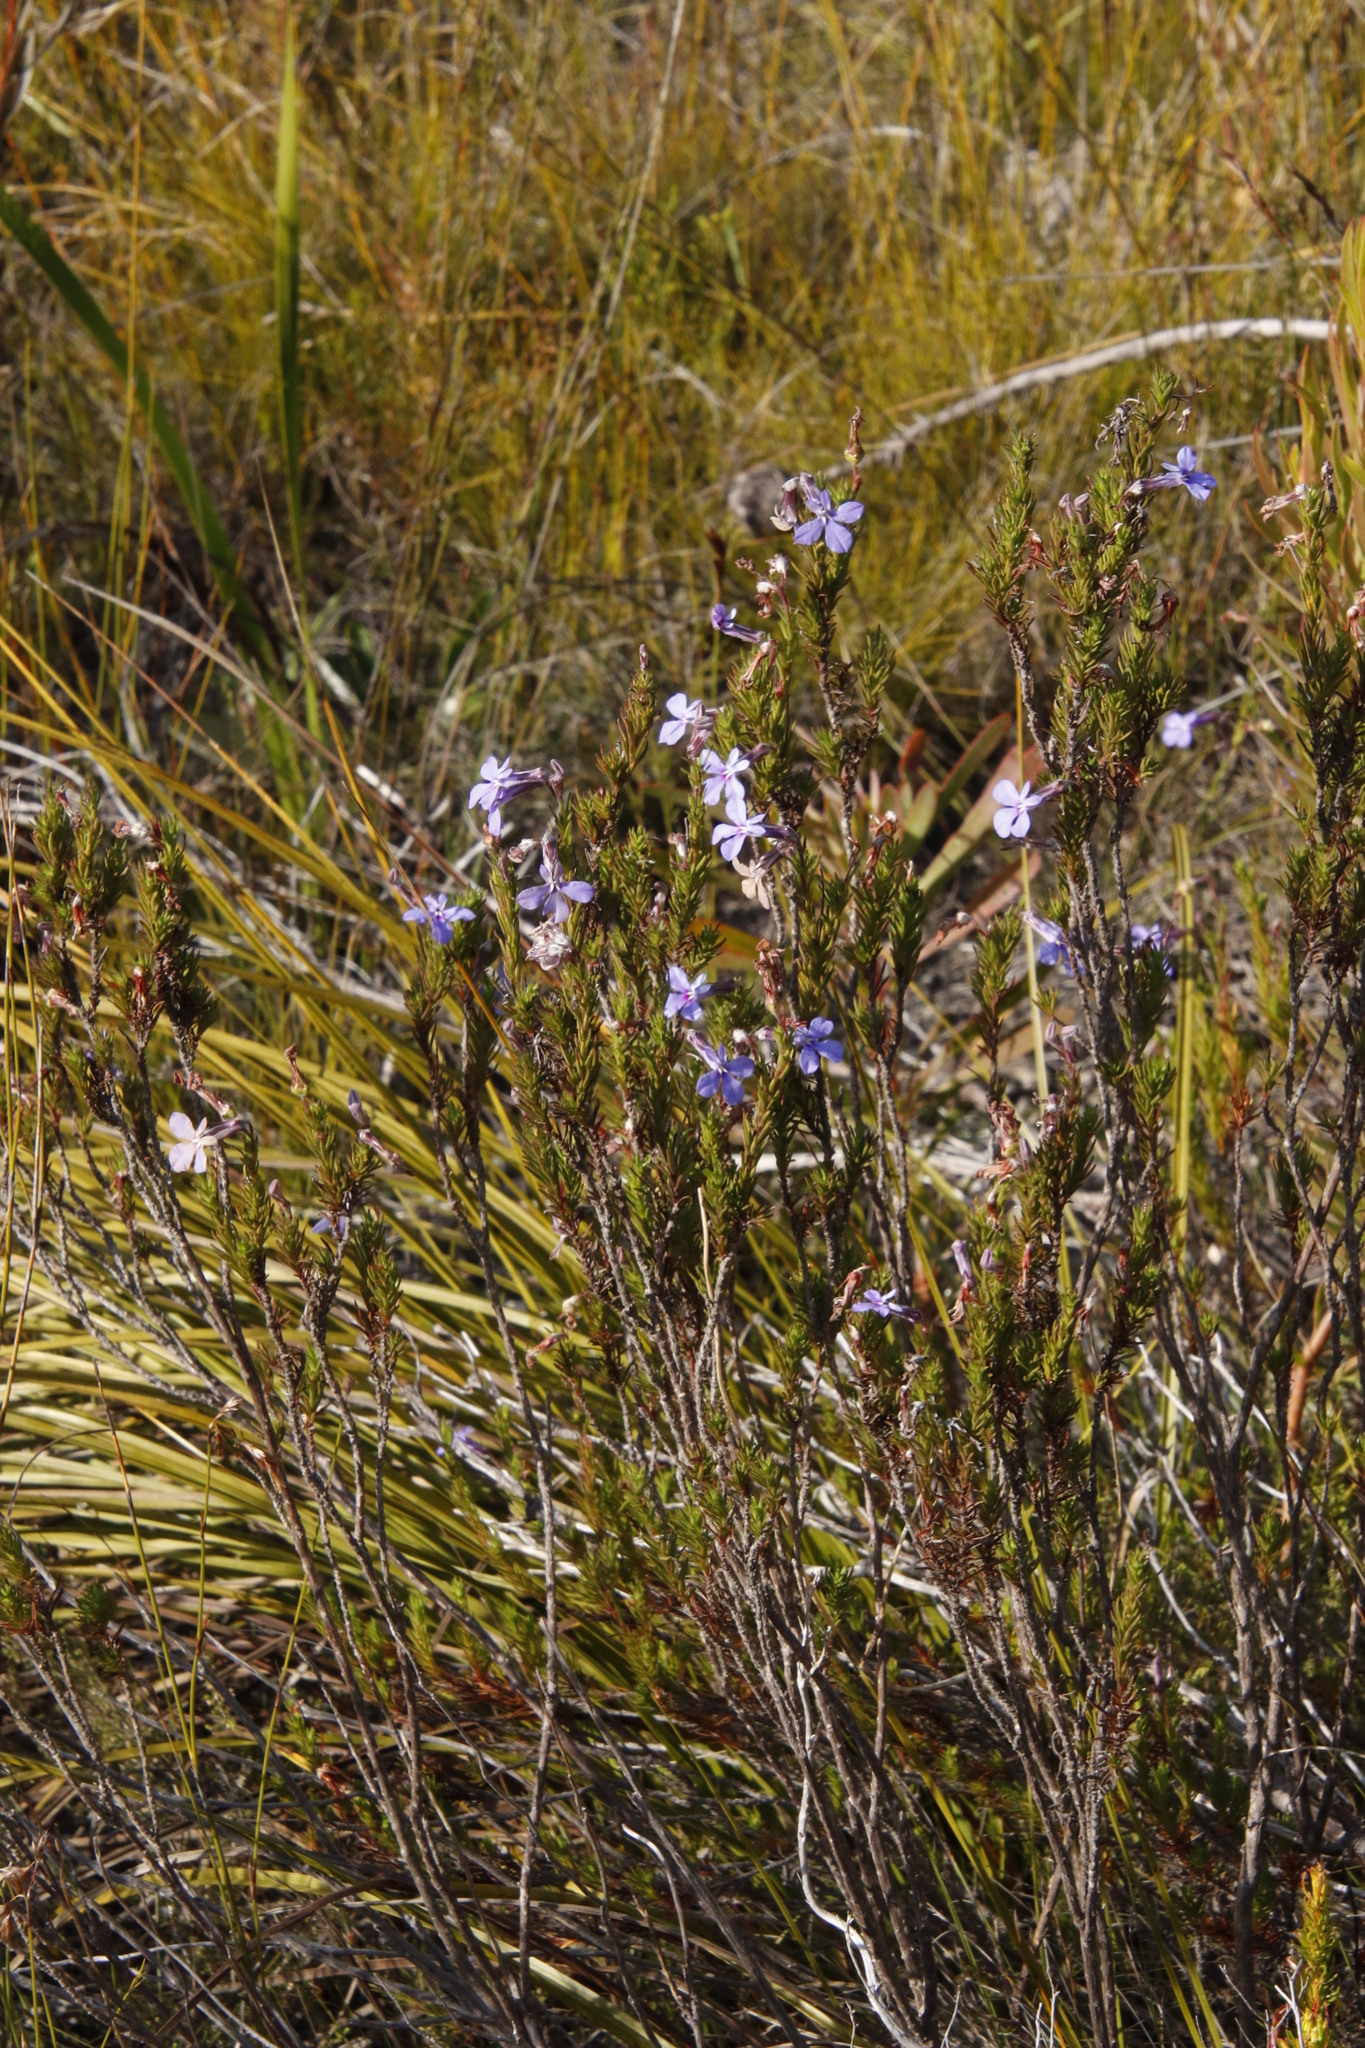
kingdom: Plantae
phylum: Tracheophyta
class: Magnoliopsida
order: Asterales
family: Campanulaceae
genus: Lobelia
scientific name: Lobelia pinifolia
